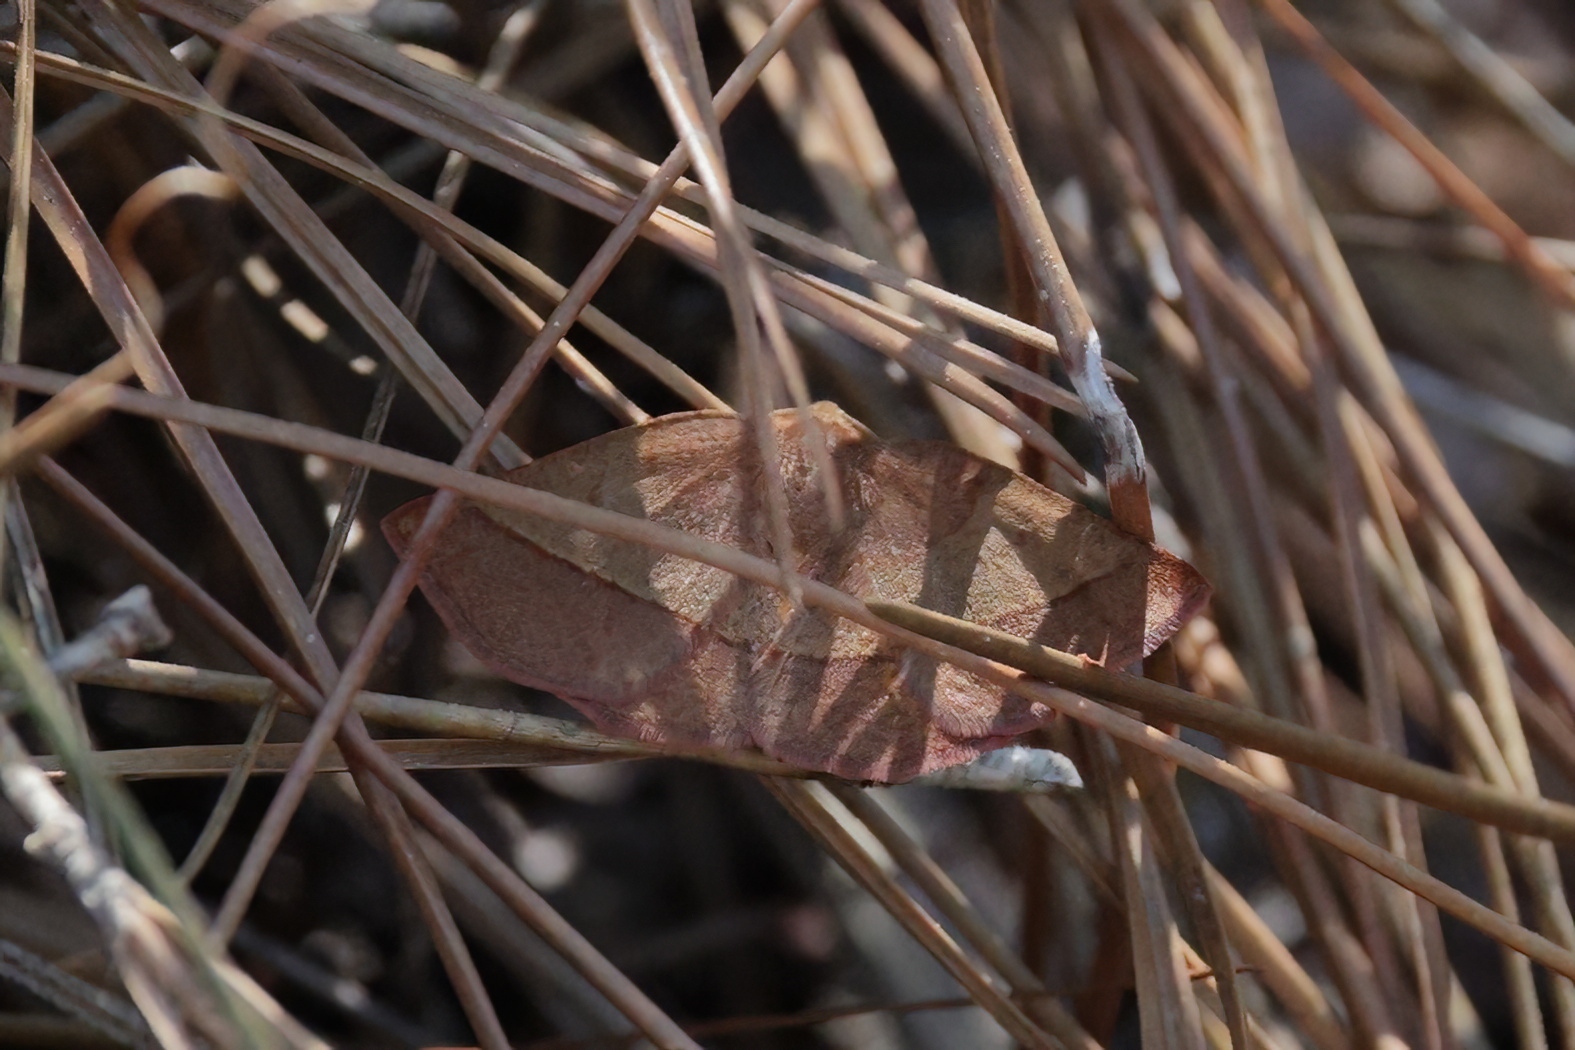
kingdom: Animalia
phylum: Arthropoda
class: Insecta
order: Lepidoptera
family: Geometridae
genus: Metarranthis
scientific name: Metarranthis obfirmaria
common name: Yellow-washed metarranthis
